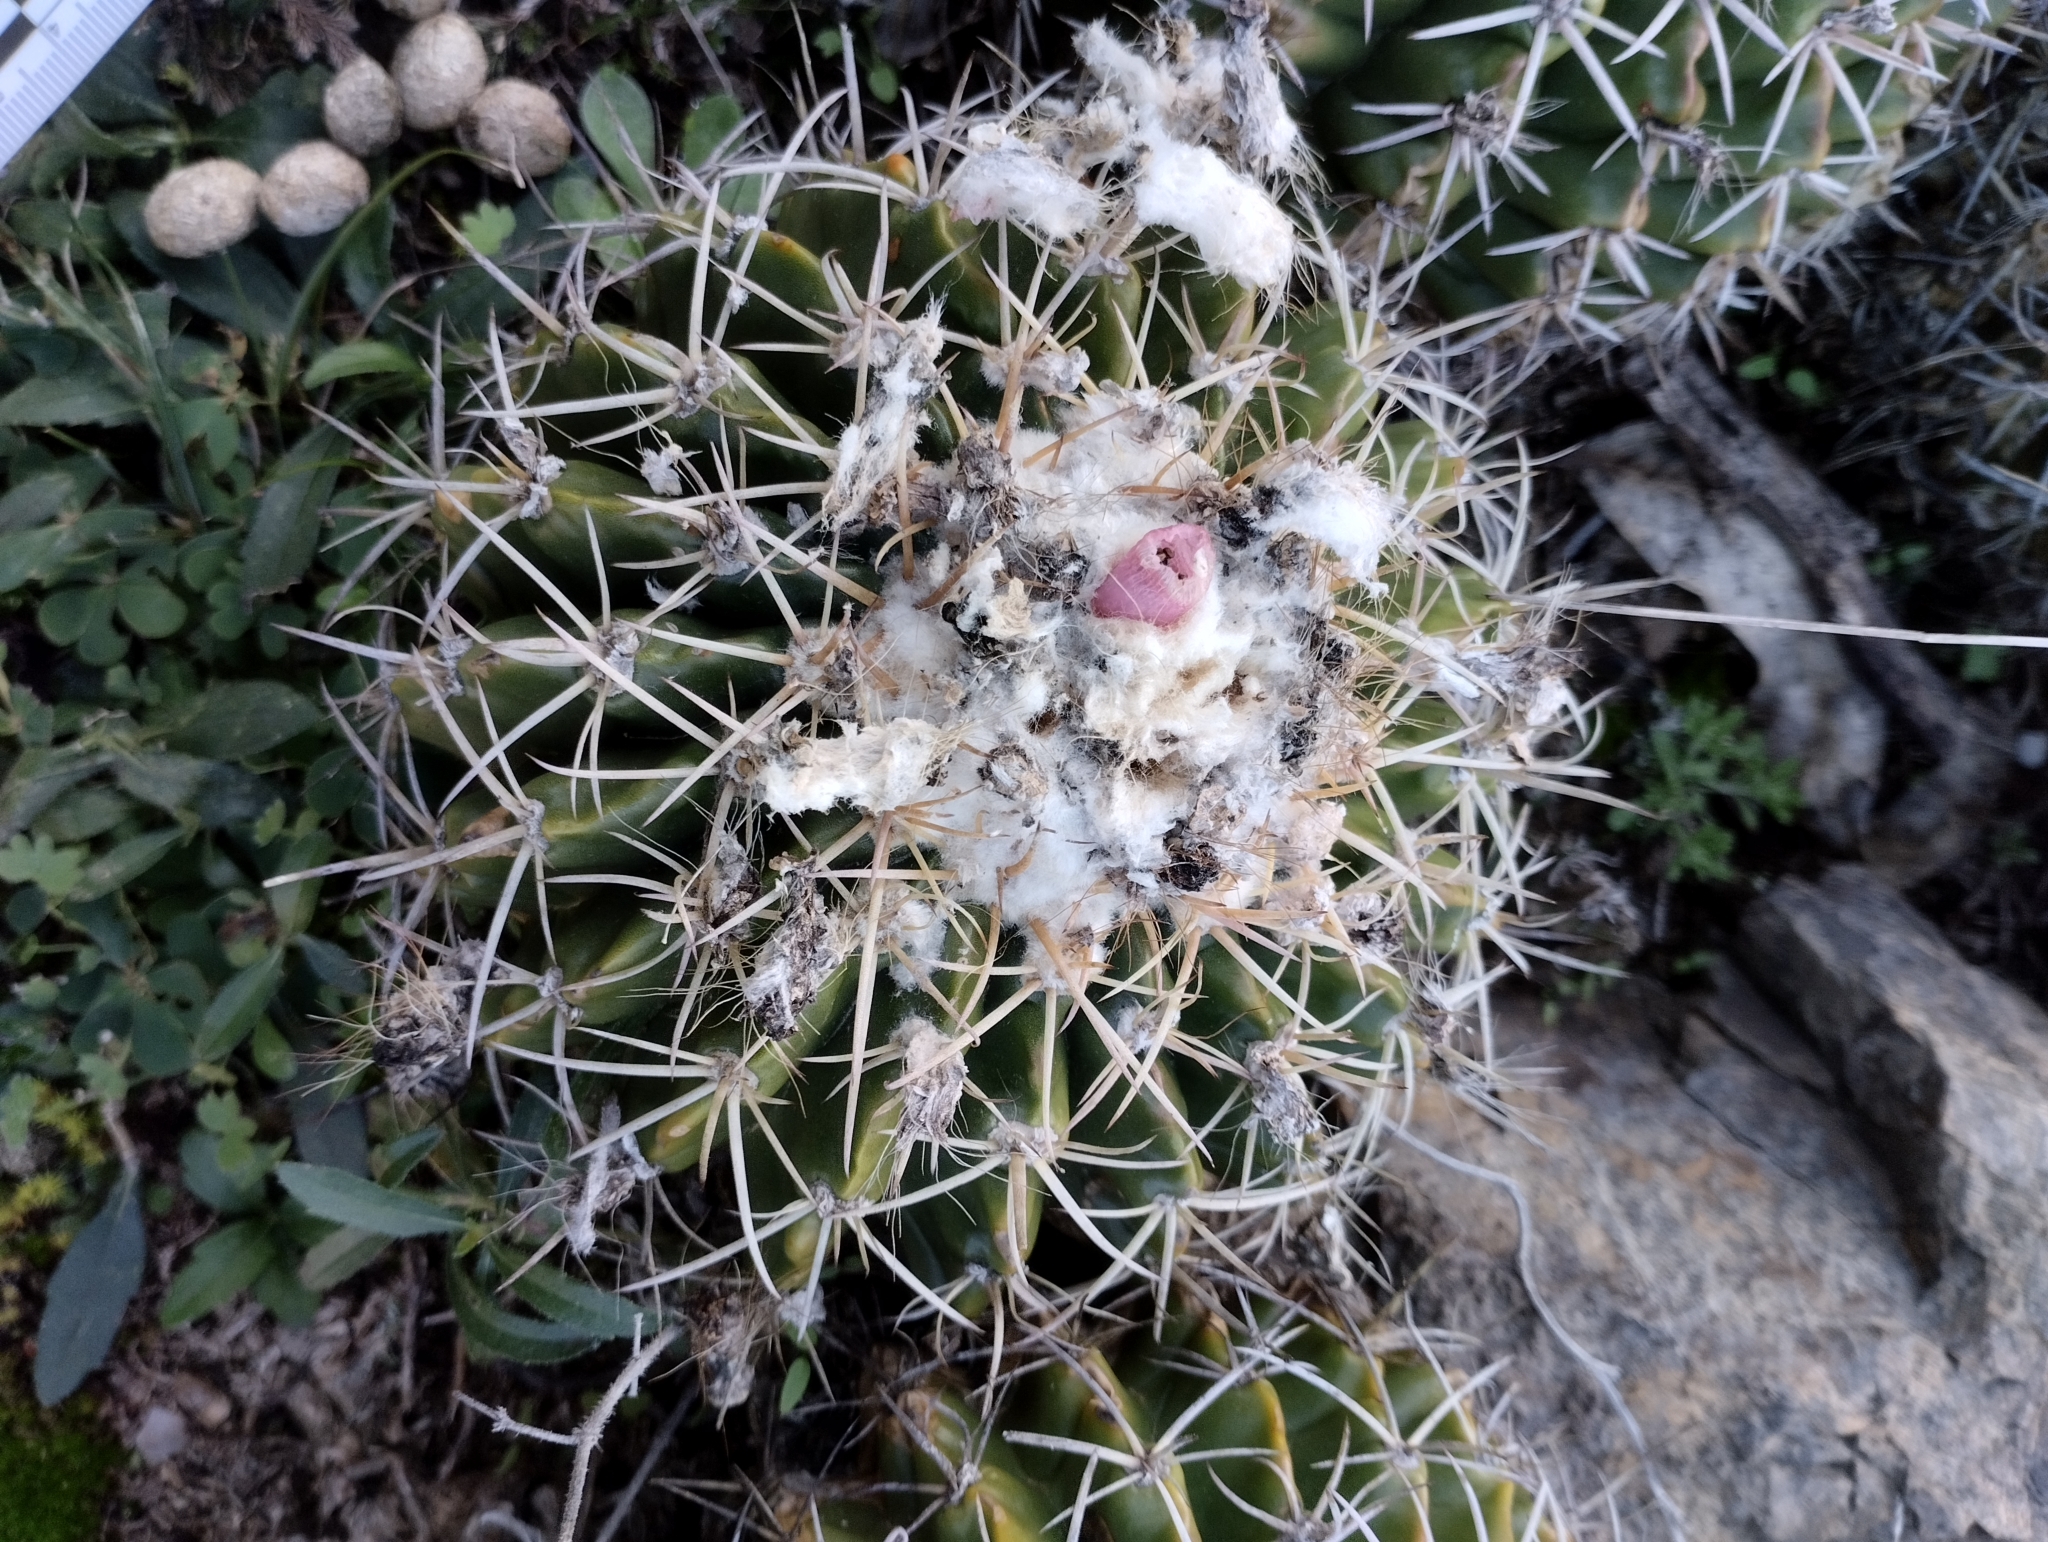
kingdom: Plantae
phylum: Tracheophyta
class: Magnoliopsida
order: Caryophyllales
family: Cactaceae
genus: Parodia
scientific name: Parodia erinacea
